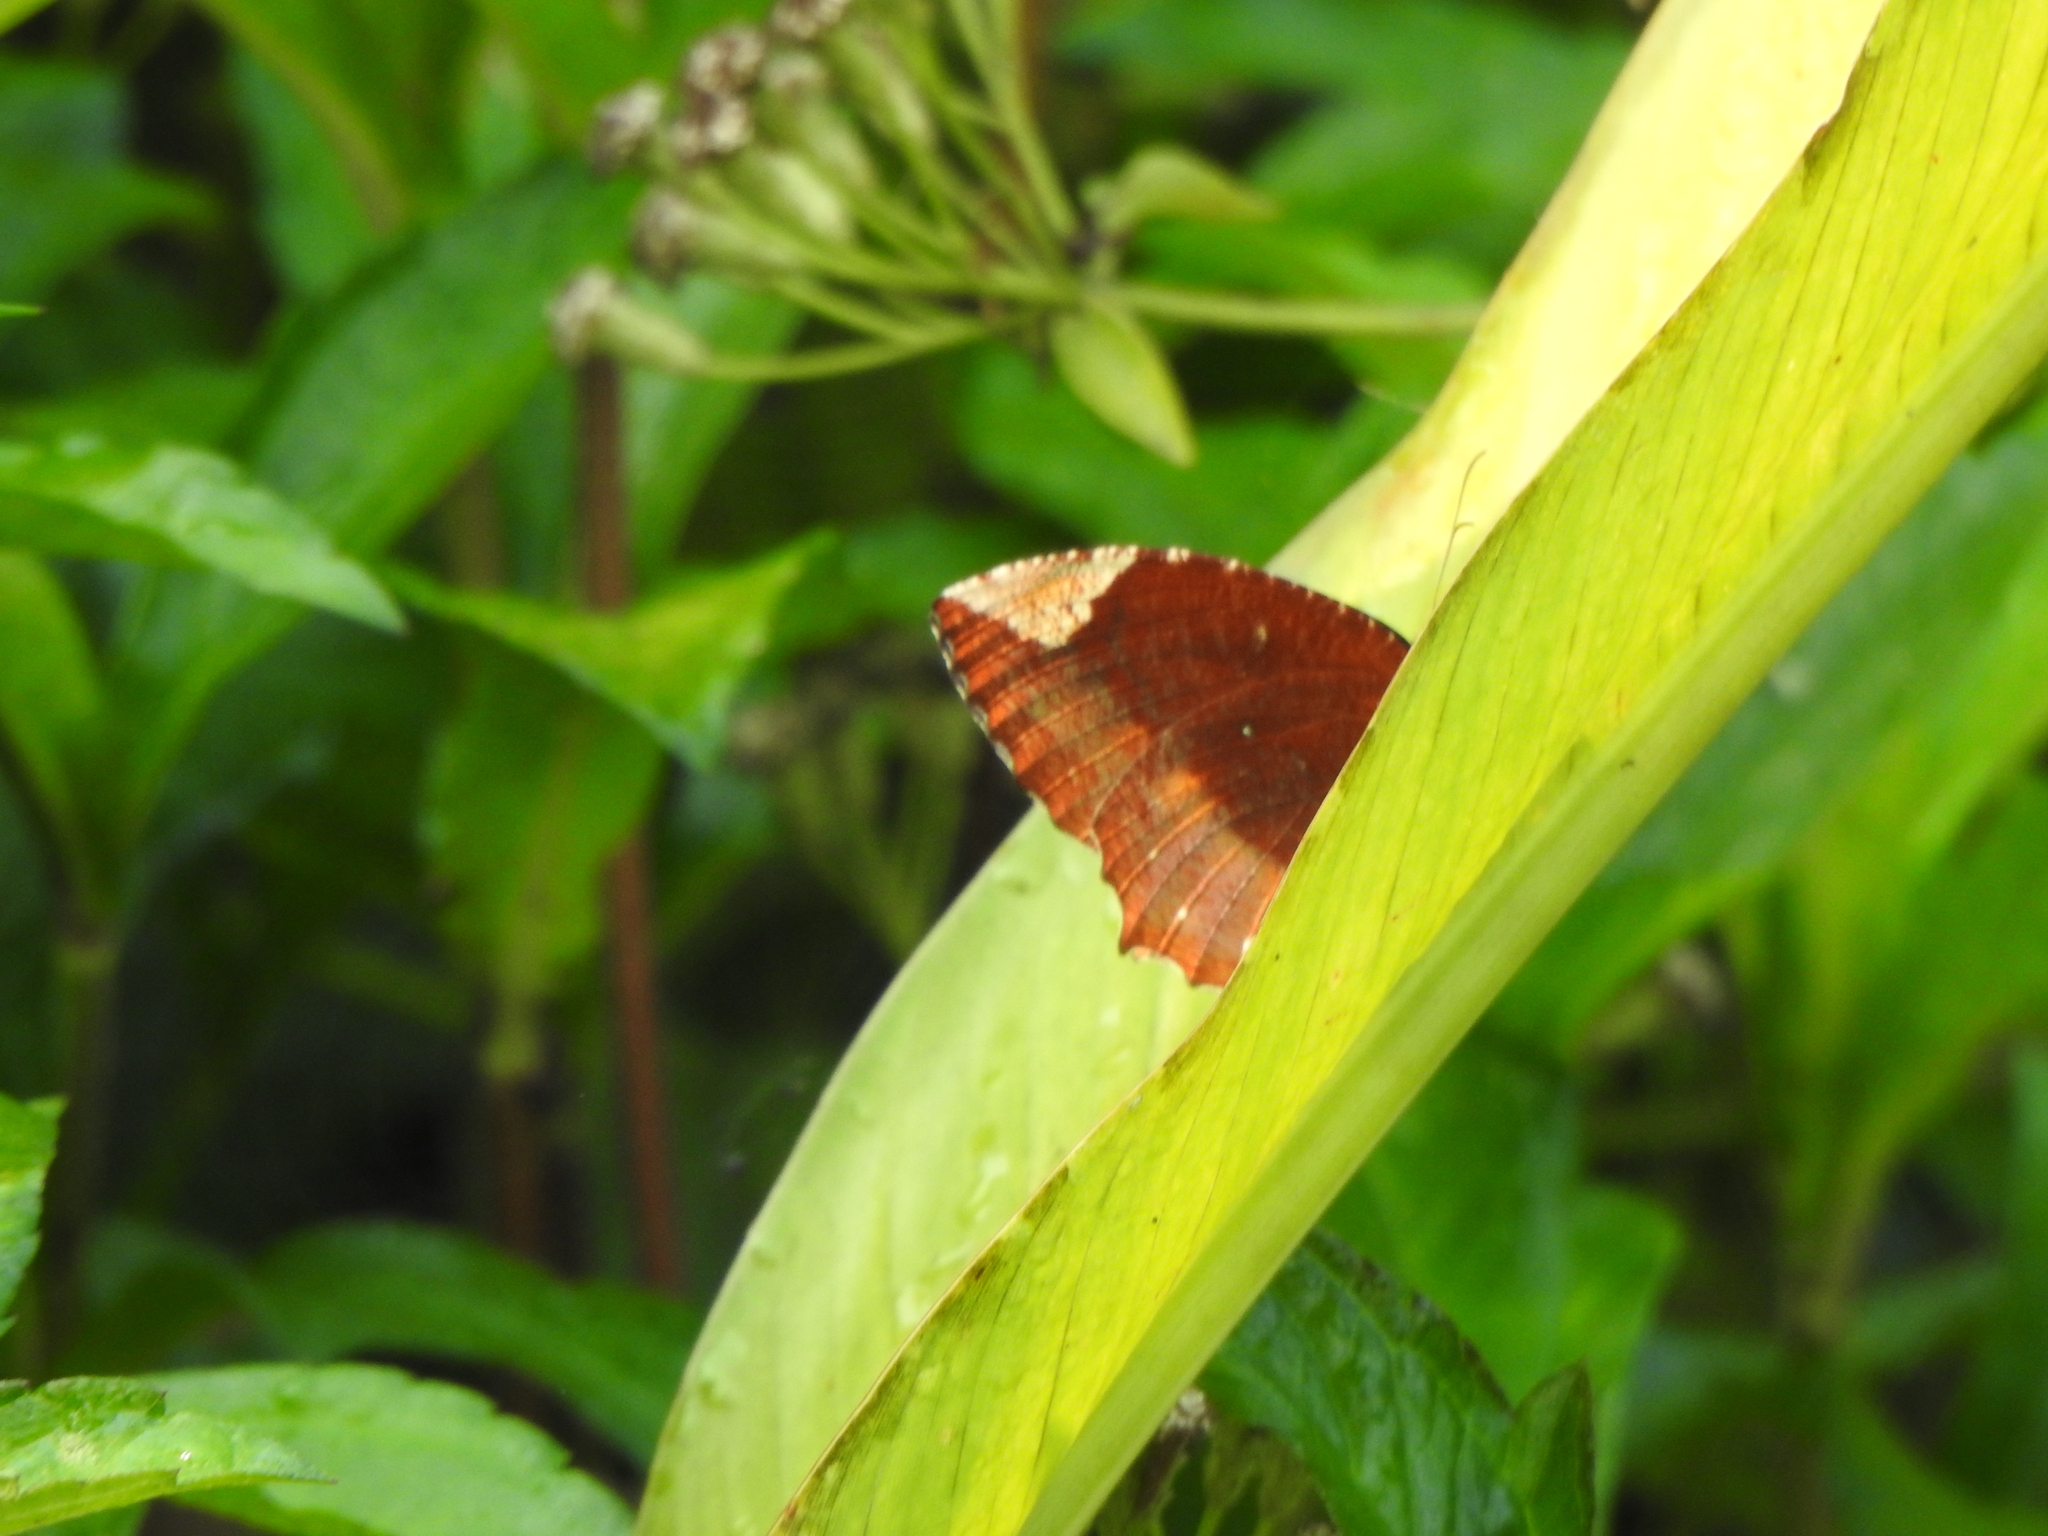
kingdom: Animalia
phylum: Arthropoda
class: Insecta
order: Lepidoptera
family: Nymphalidae
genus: Elymnias
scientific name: Elymnias hypermnestra
